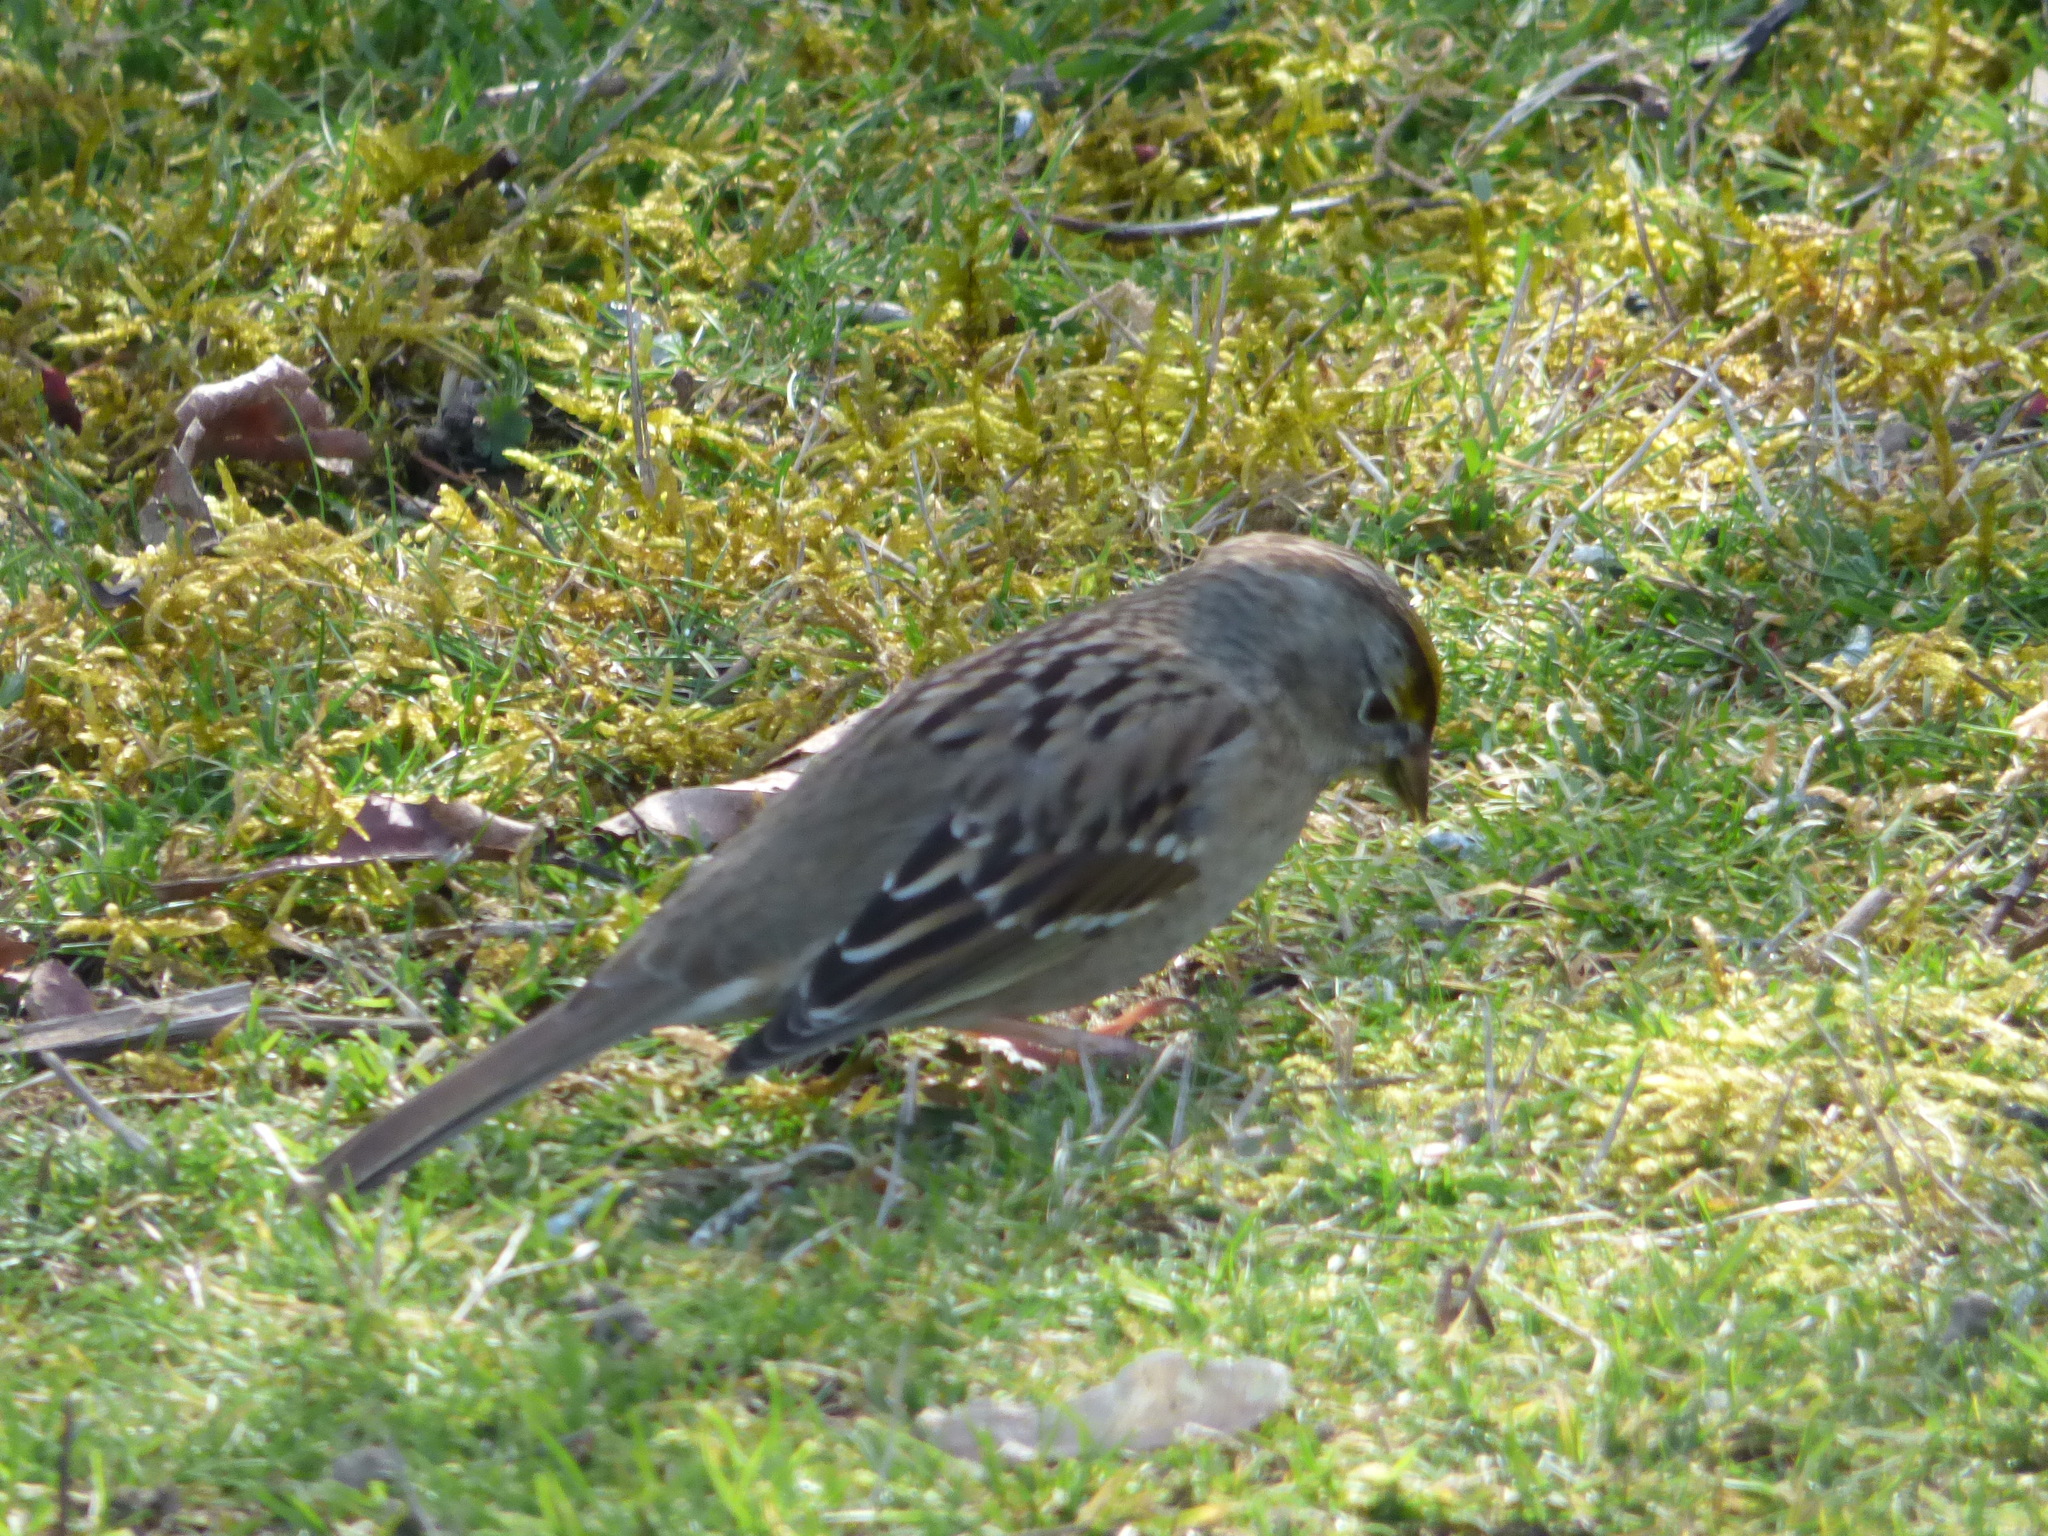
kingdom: Animalia
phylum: Chordata
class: Aves
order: Passeriformes
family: Passerellidae
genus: Zonotrichia
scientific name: Zonotrichia atricapilla
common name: Golden-crowned sparrow
